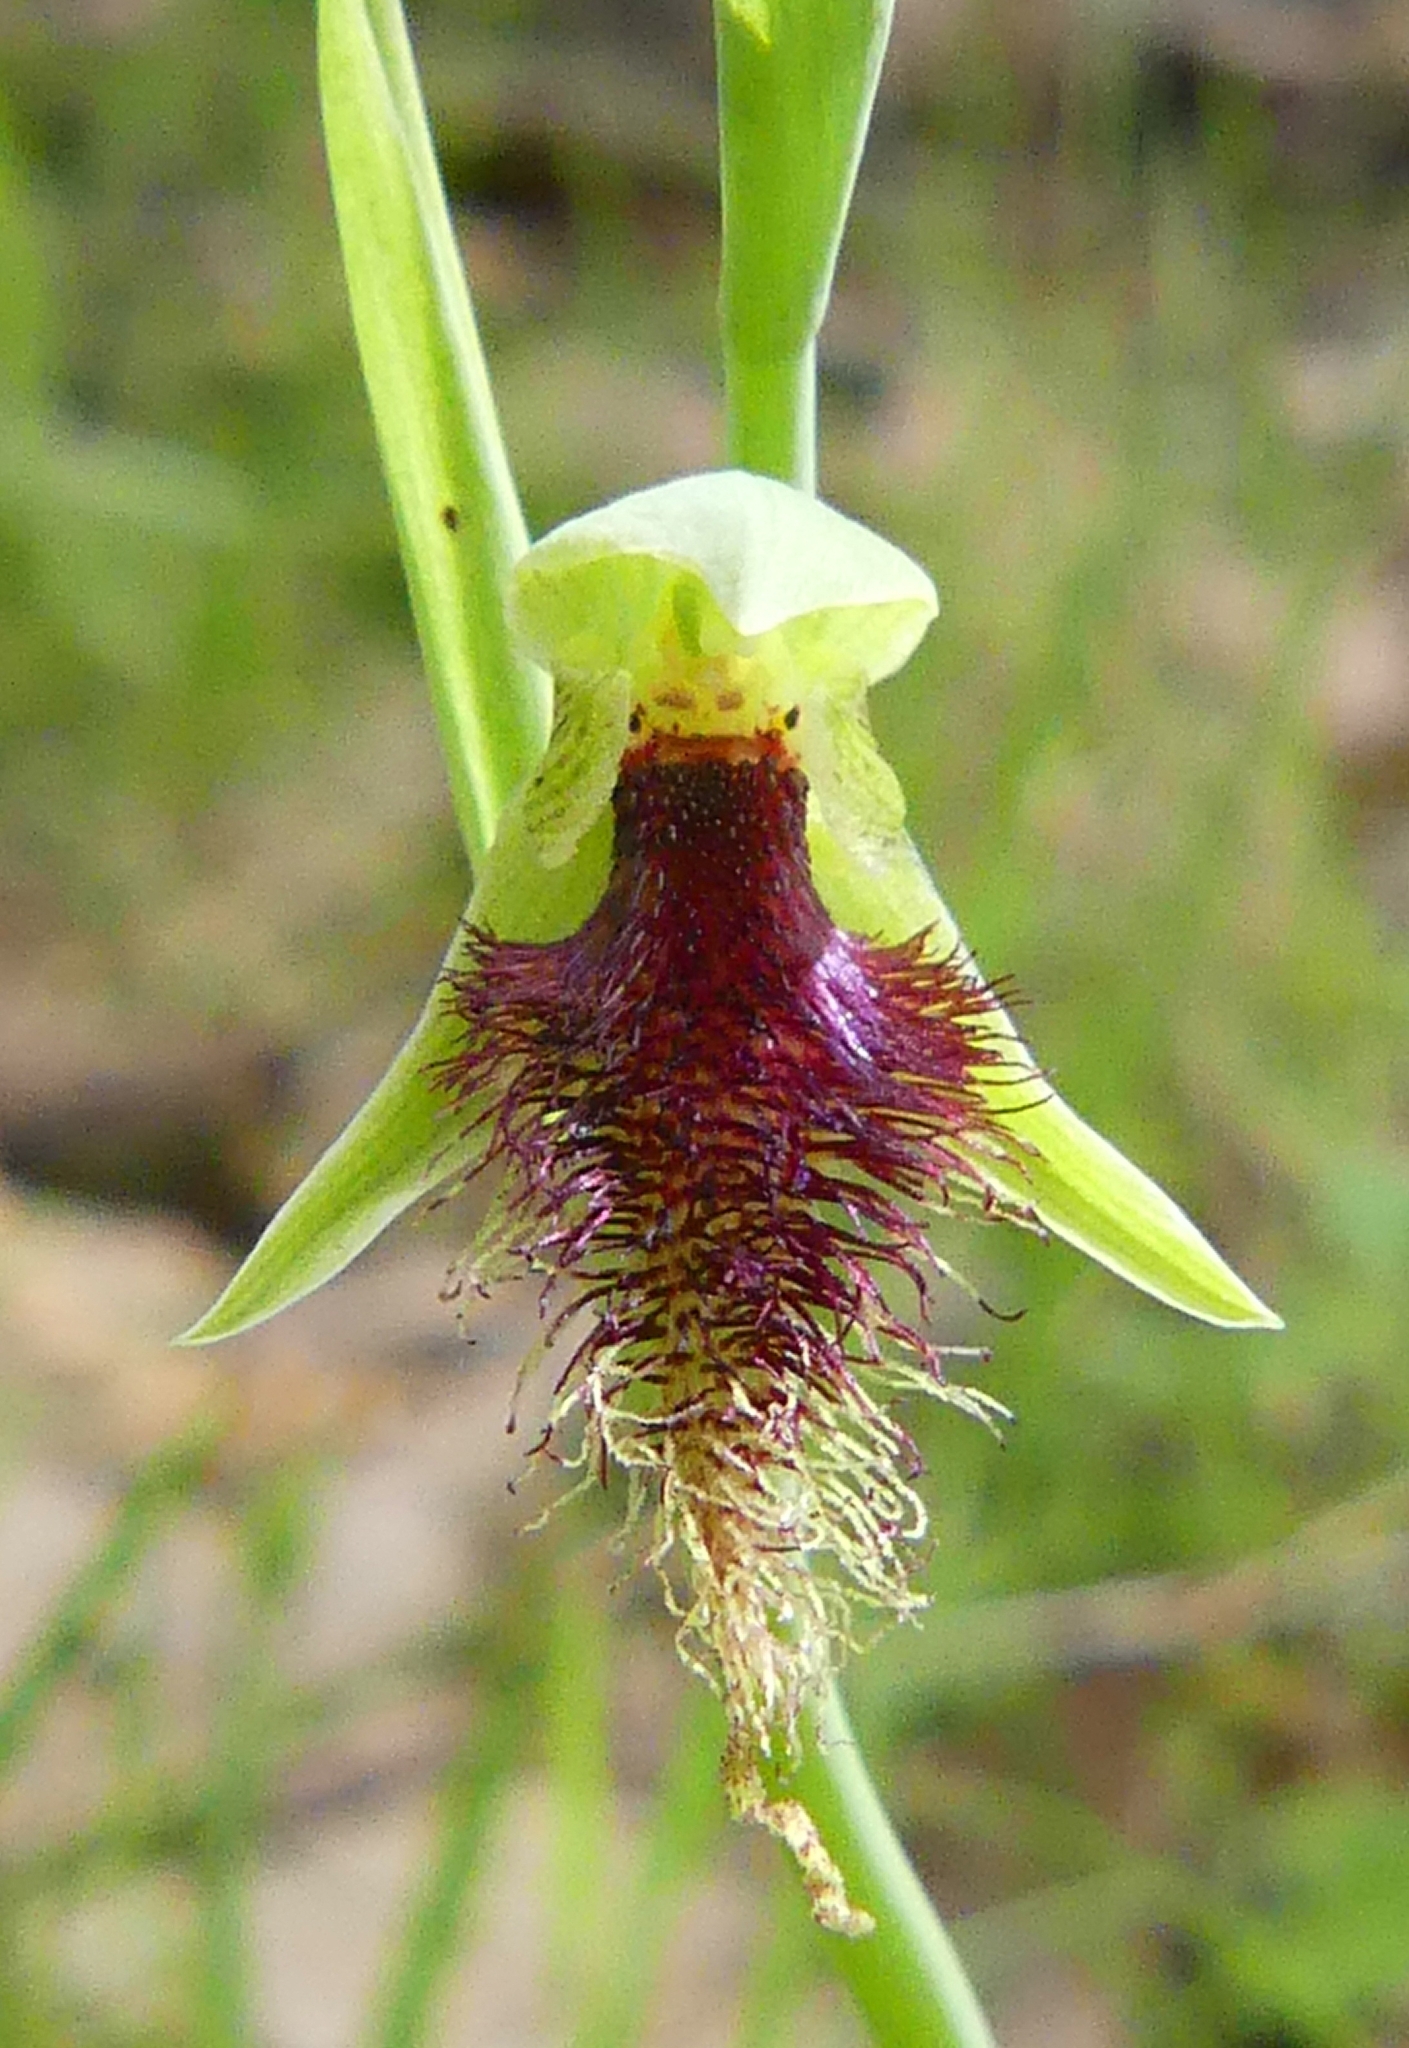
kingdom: Plantae
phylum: Tracheophyta
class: Liliopsida
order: Asparagales
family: Orchidaceae
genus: Calochilus
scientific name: Calochilus robertsonii
